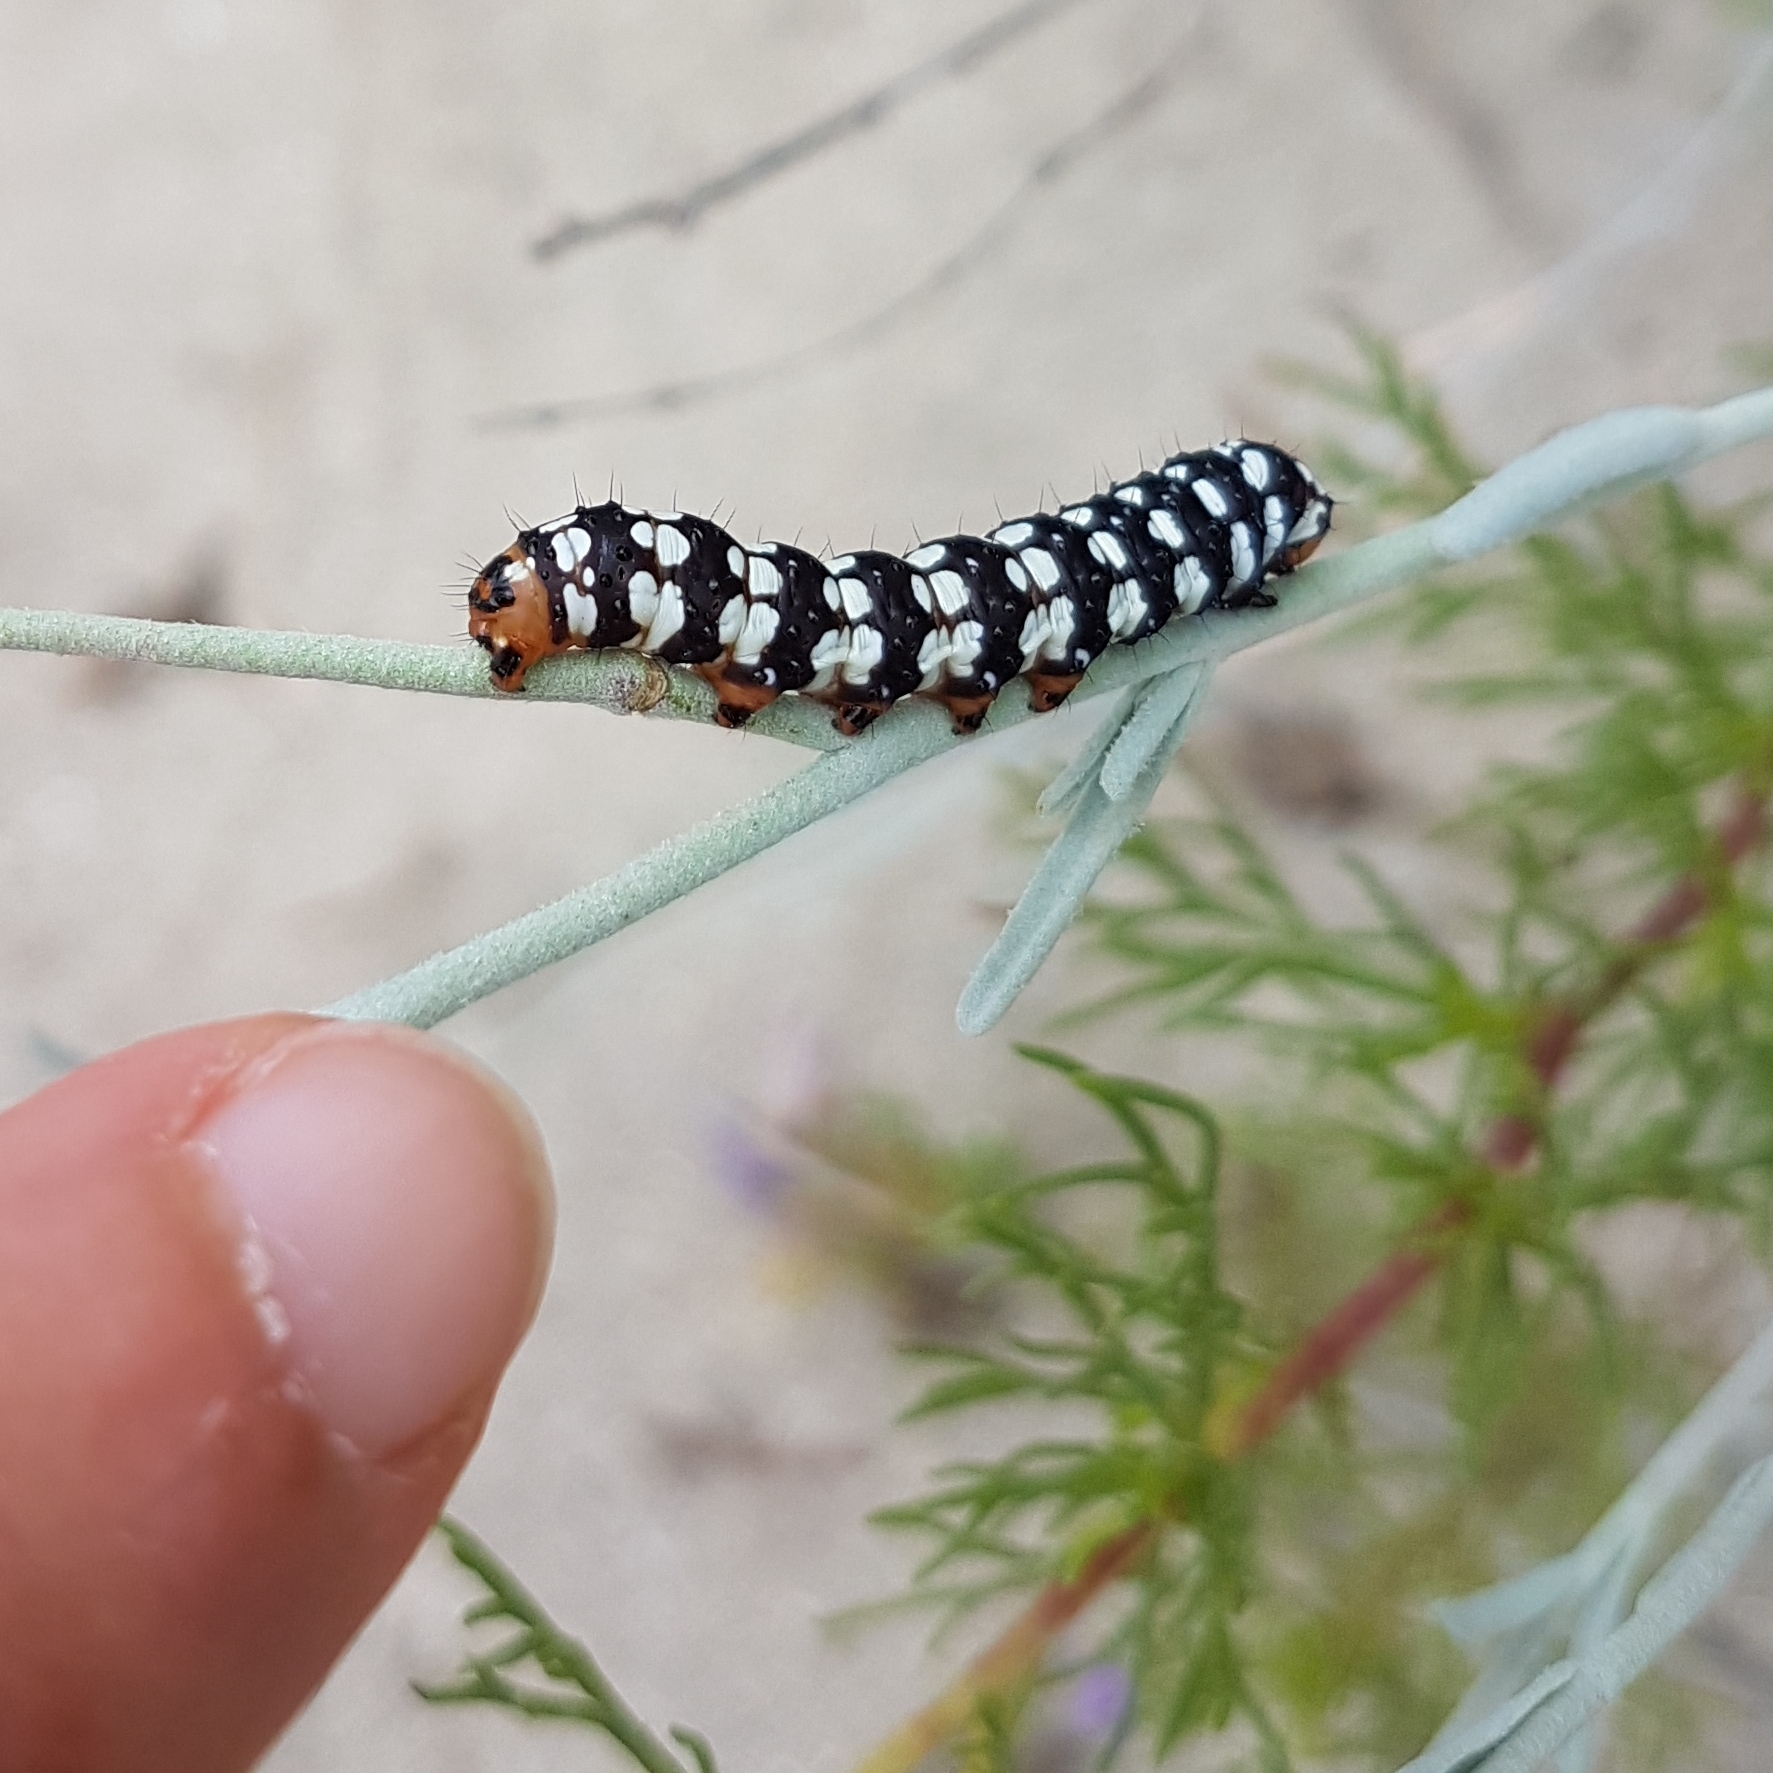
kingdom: Animalia
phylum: Arthropoda
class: Insecta
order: Lepidoptera
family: Noctuidae
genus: Brithys
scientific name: Brithys crini
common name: Kew arches
